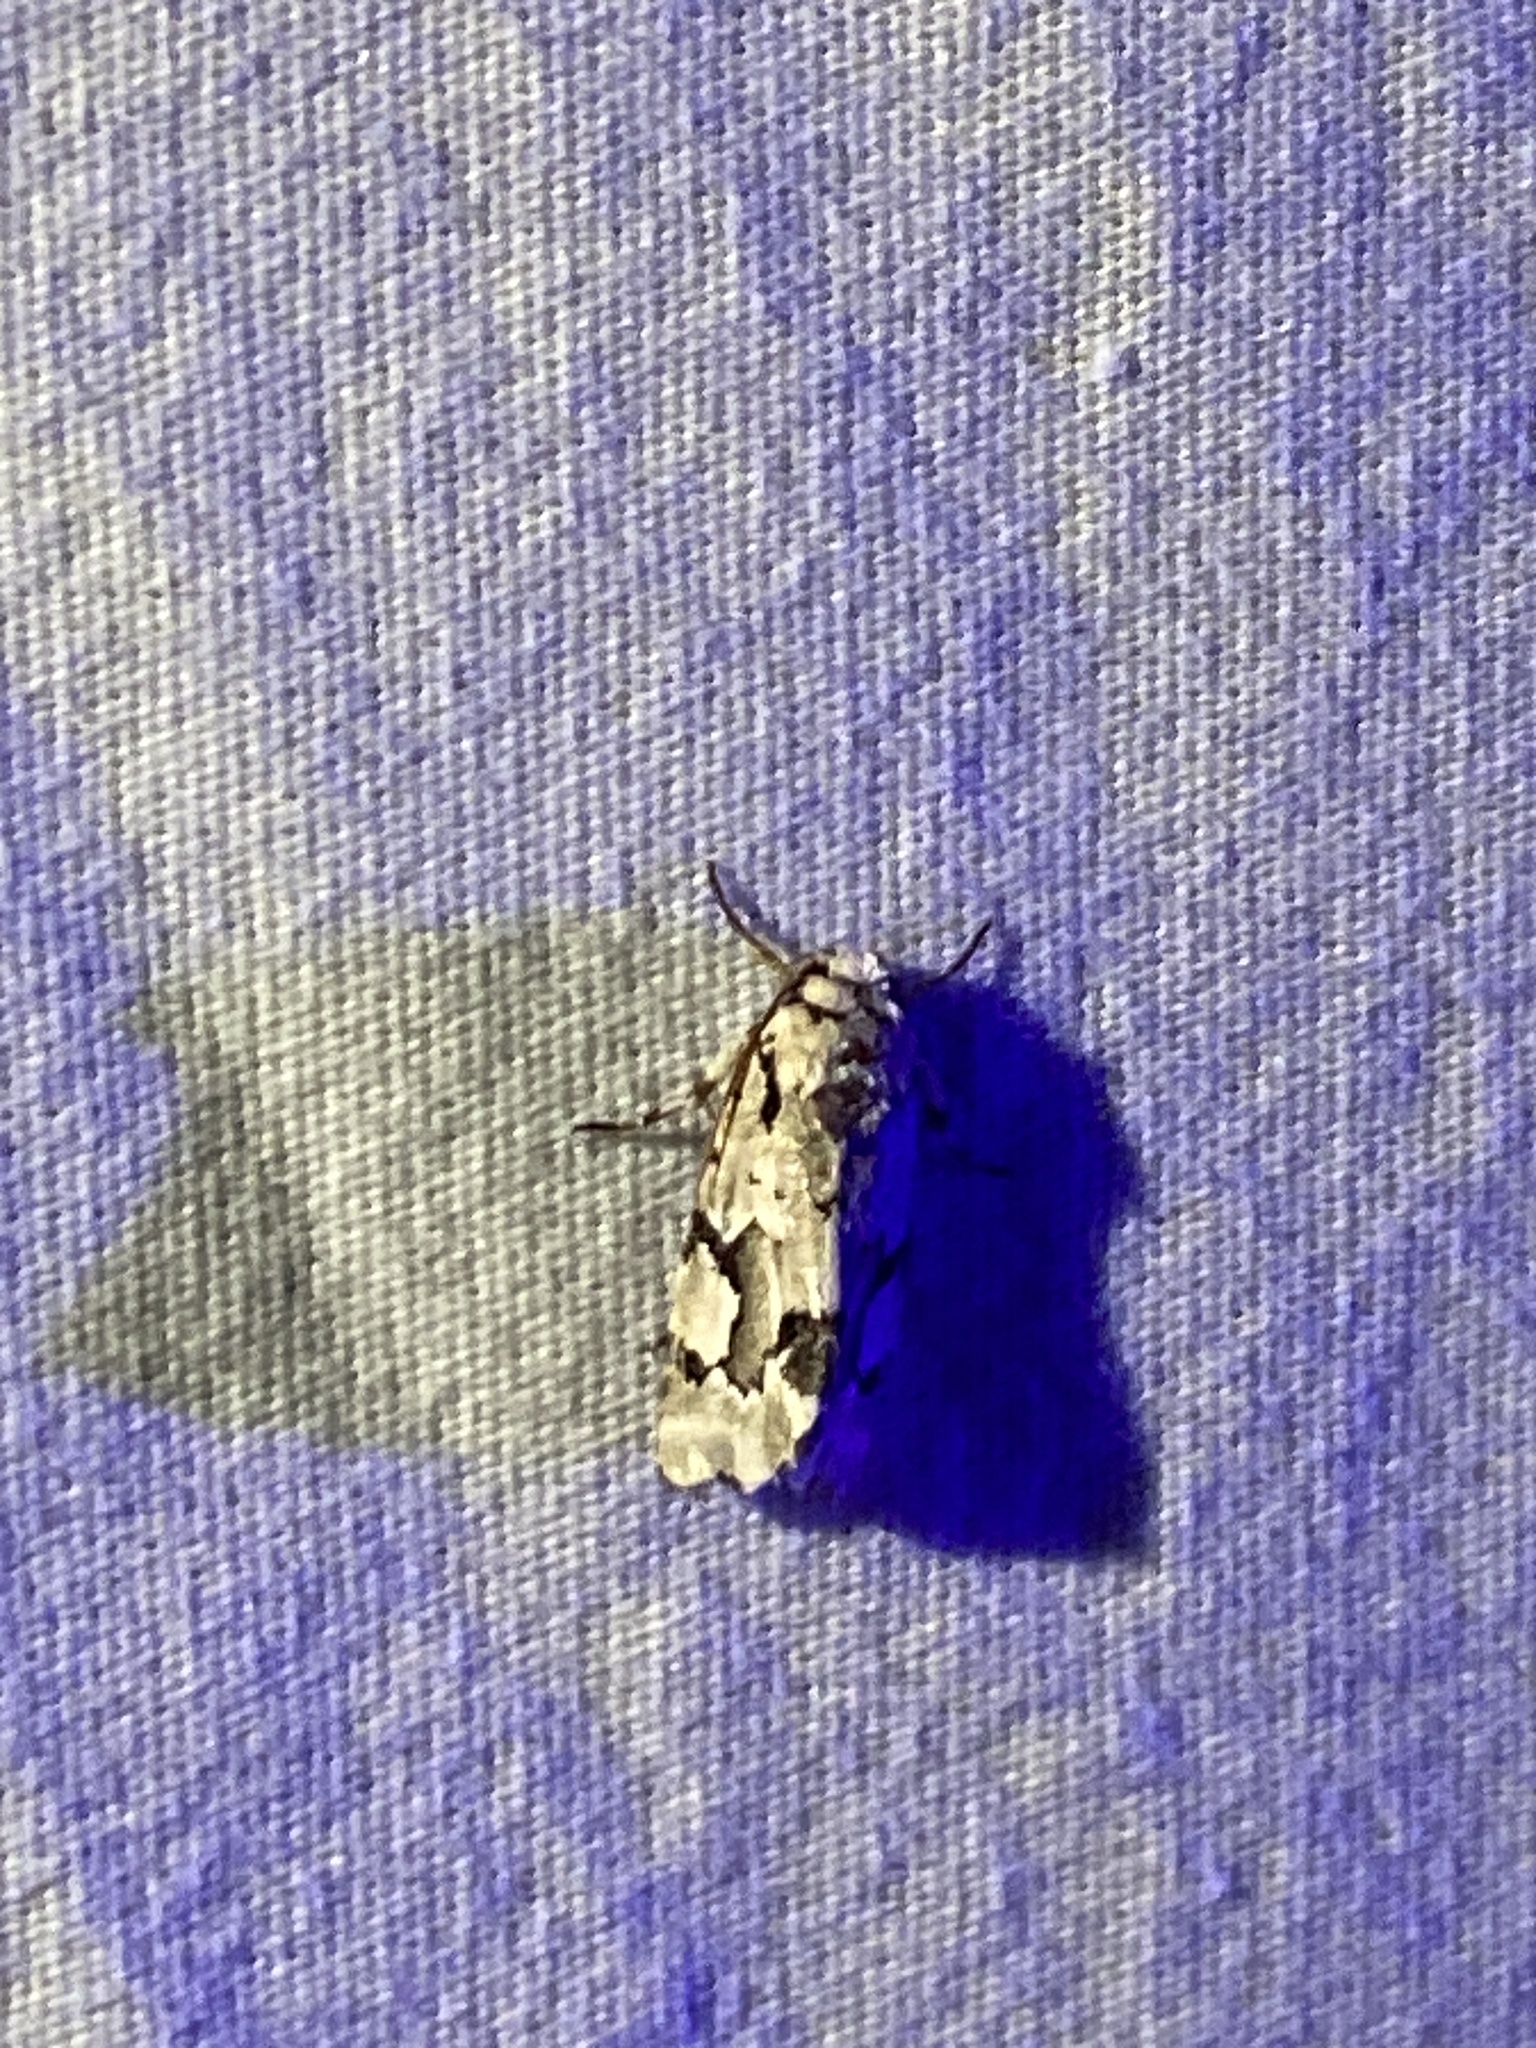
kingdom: Animalia
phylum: Arthropoda
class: Insecta
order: Lepidoptera
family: Noctuidae
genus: Emarginea
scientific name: Emarginea percara
